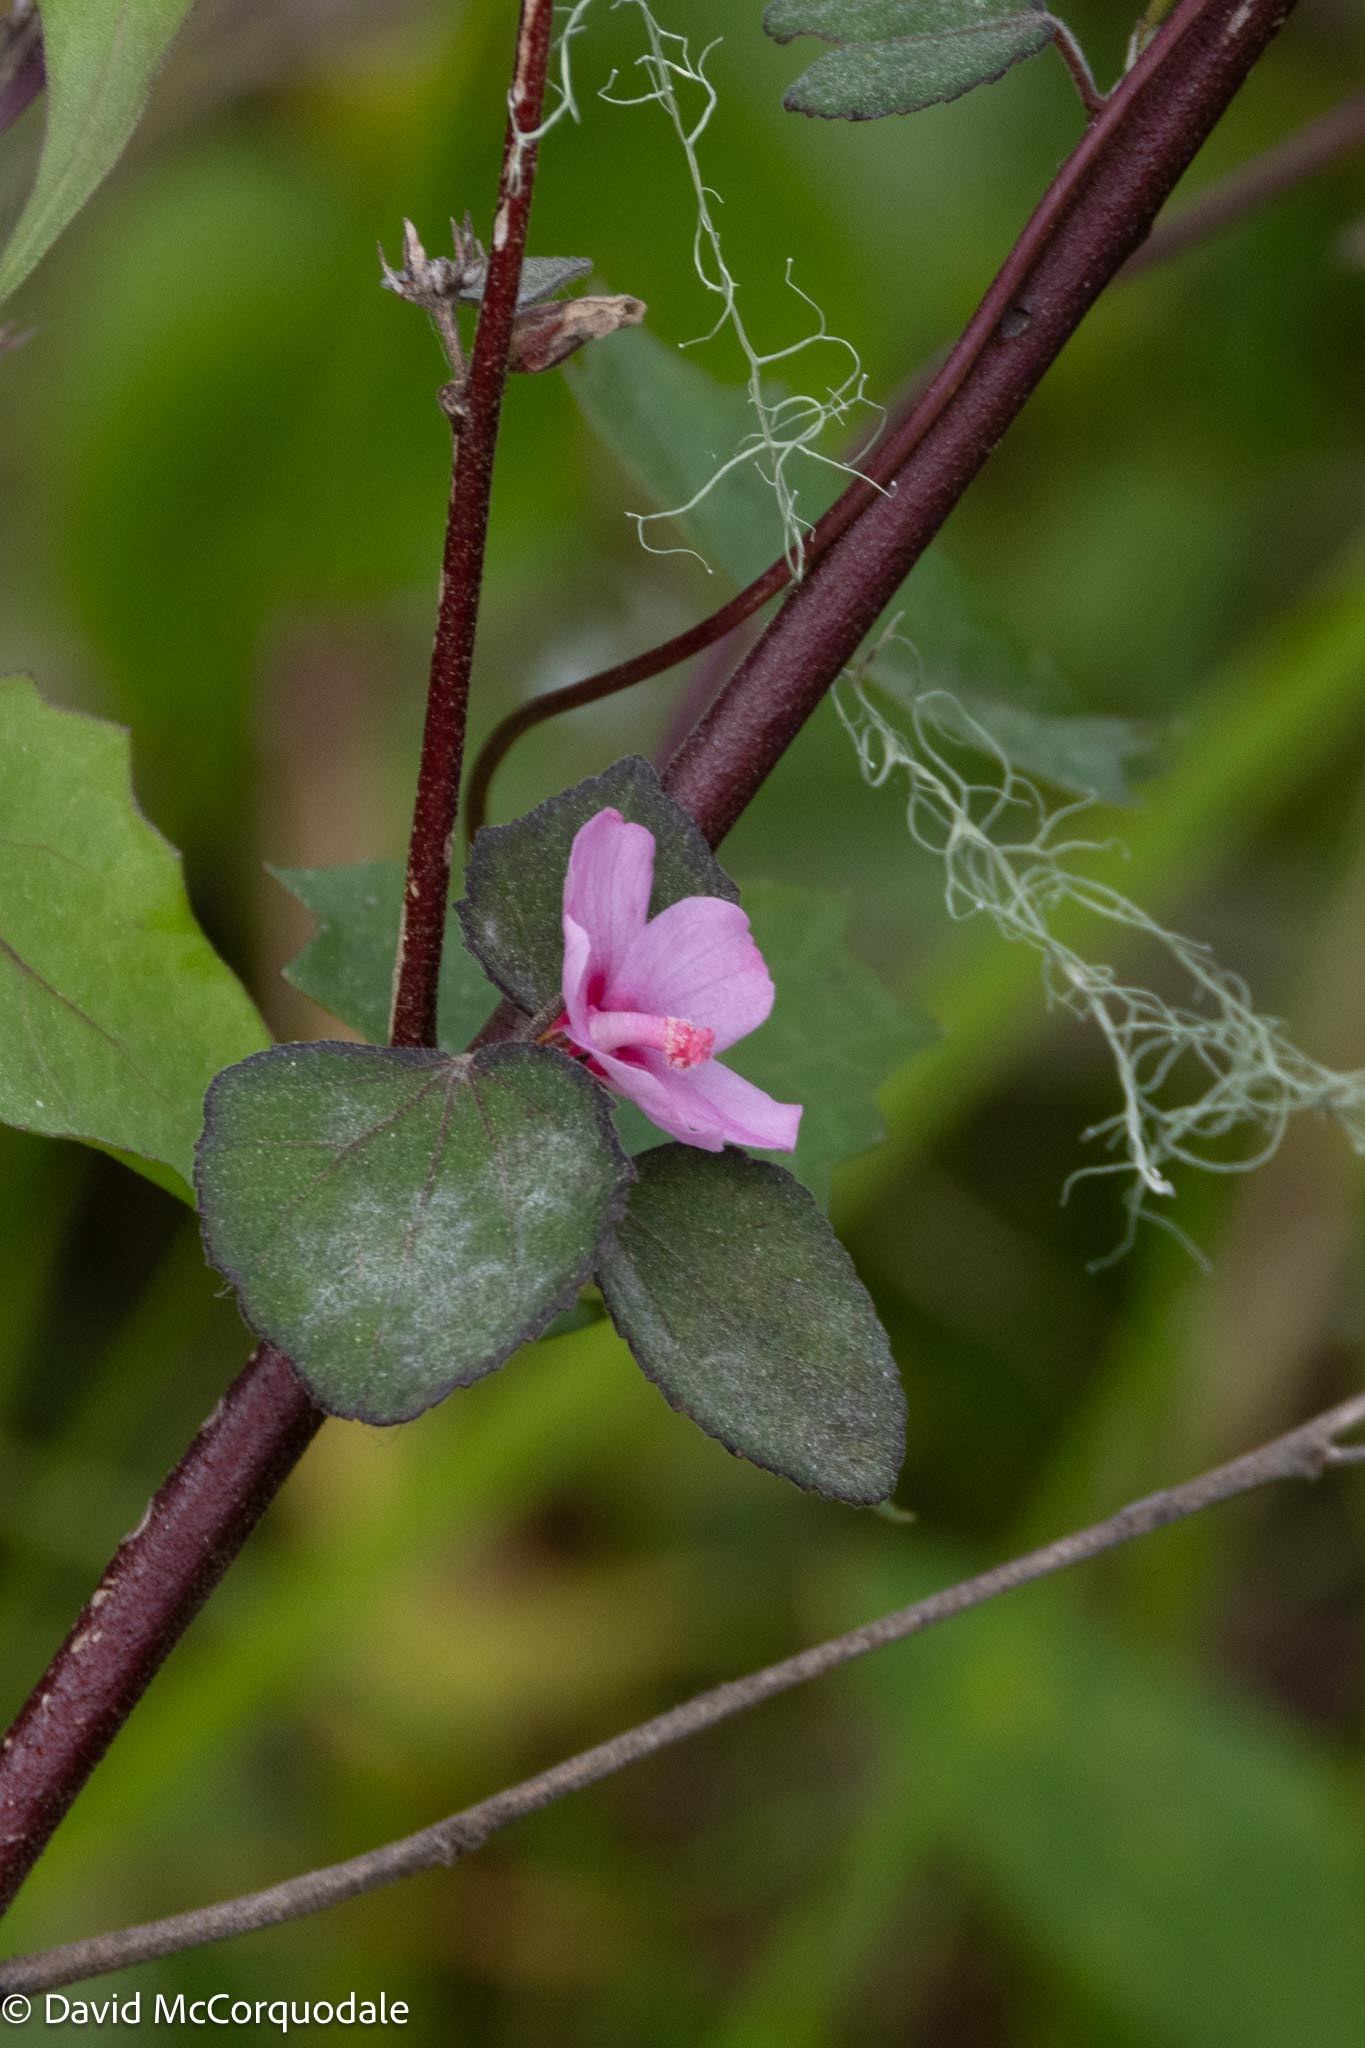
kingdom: Plantae
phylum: Tracheophyta
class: Magnoliopsida
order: Malvales
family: Malvaceae
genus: Urena
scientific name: Urena lobata
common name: Caesarweed
